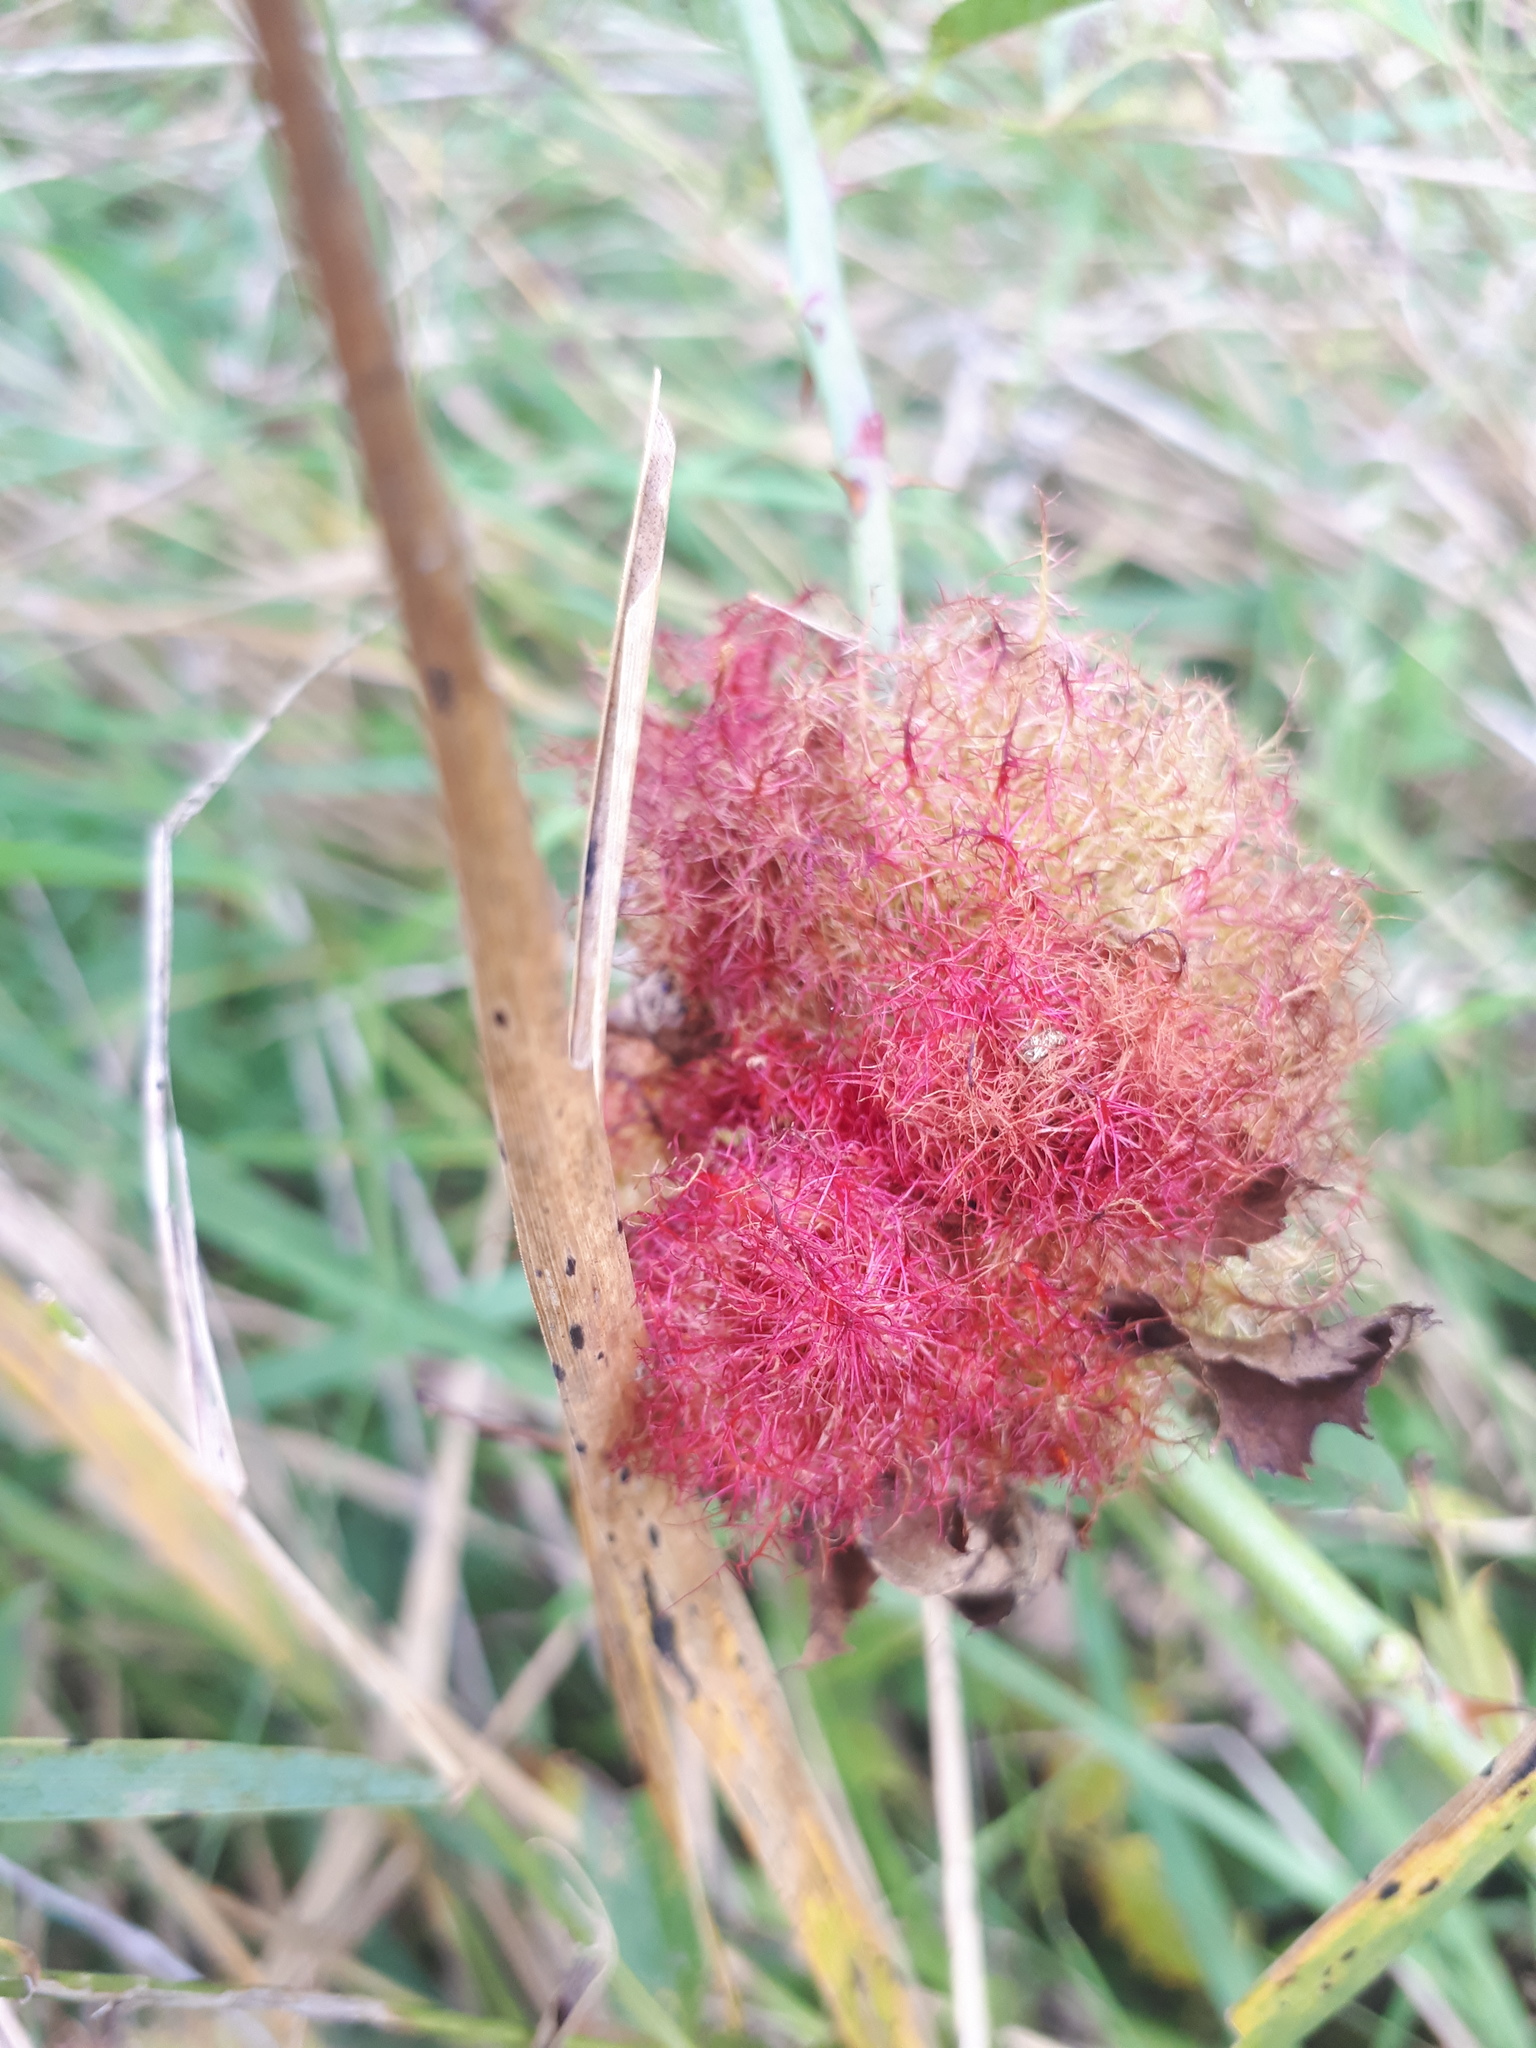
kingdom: Animalia
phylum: Arthropoda
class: Insecta
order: Hymenoptera
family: Cynipidae
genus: Diplolepis
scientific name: Diplolepis rosae
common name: Bedeguar gall
